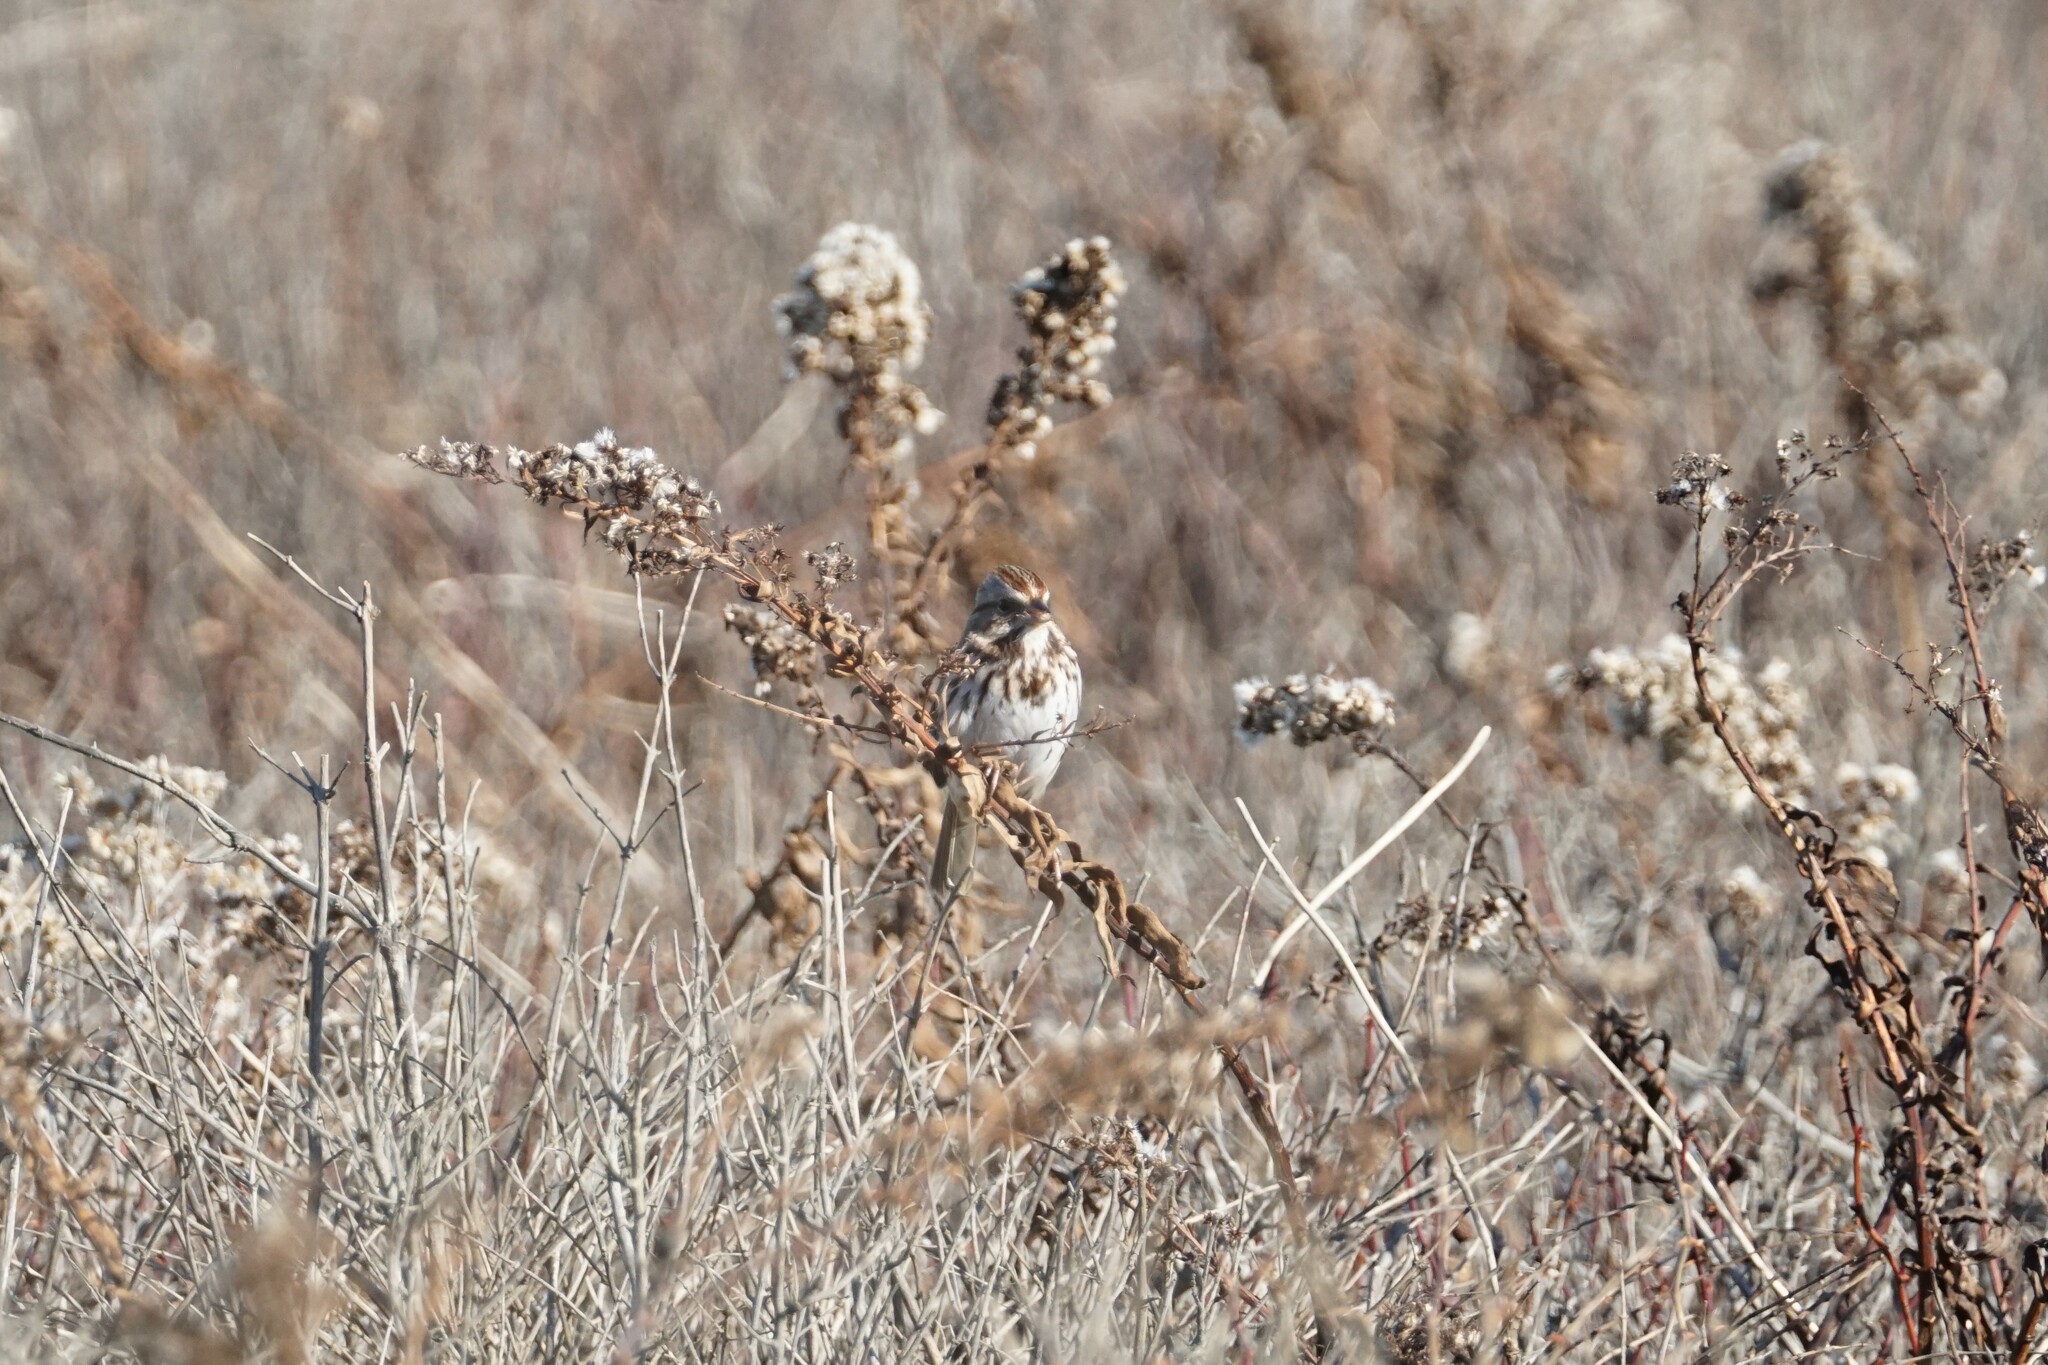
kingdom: Animalia
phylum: Chordata
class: Aves
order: Passeriformes
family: Passerellidae
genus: Melospiza
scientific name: Melospiza melodia
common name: Song sparrow
